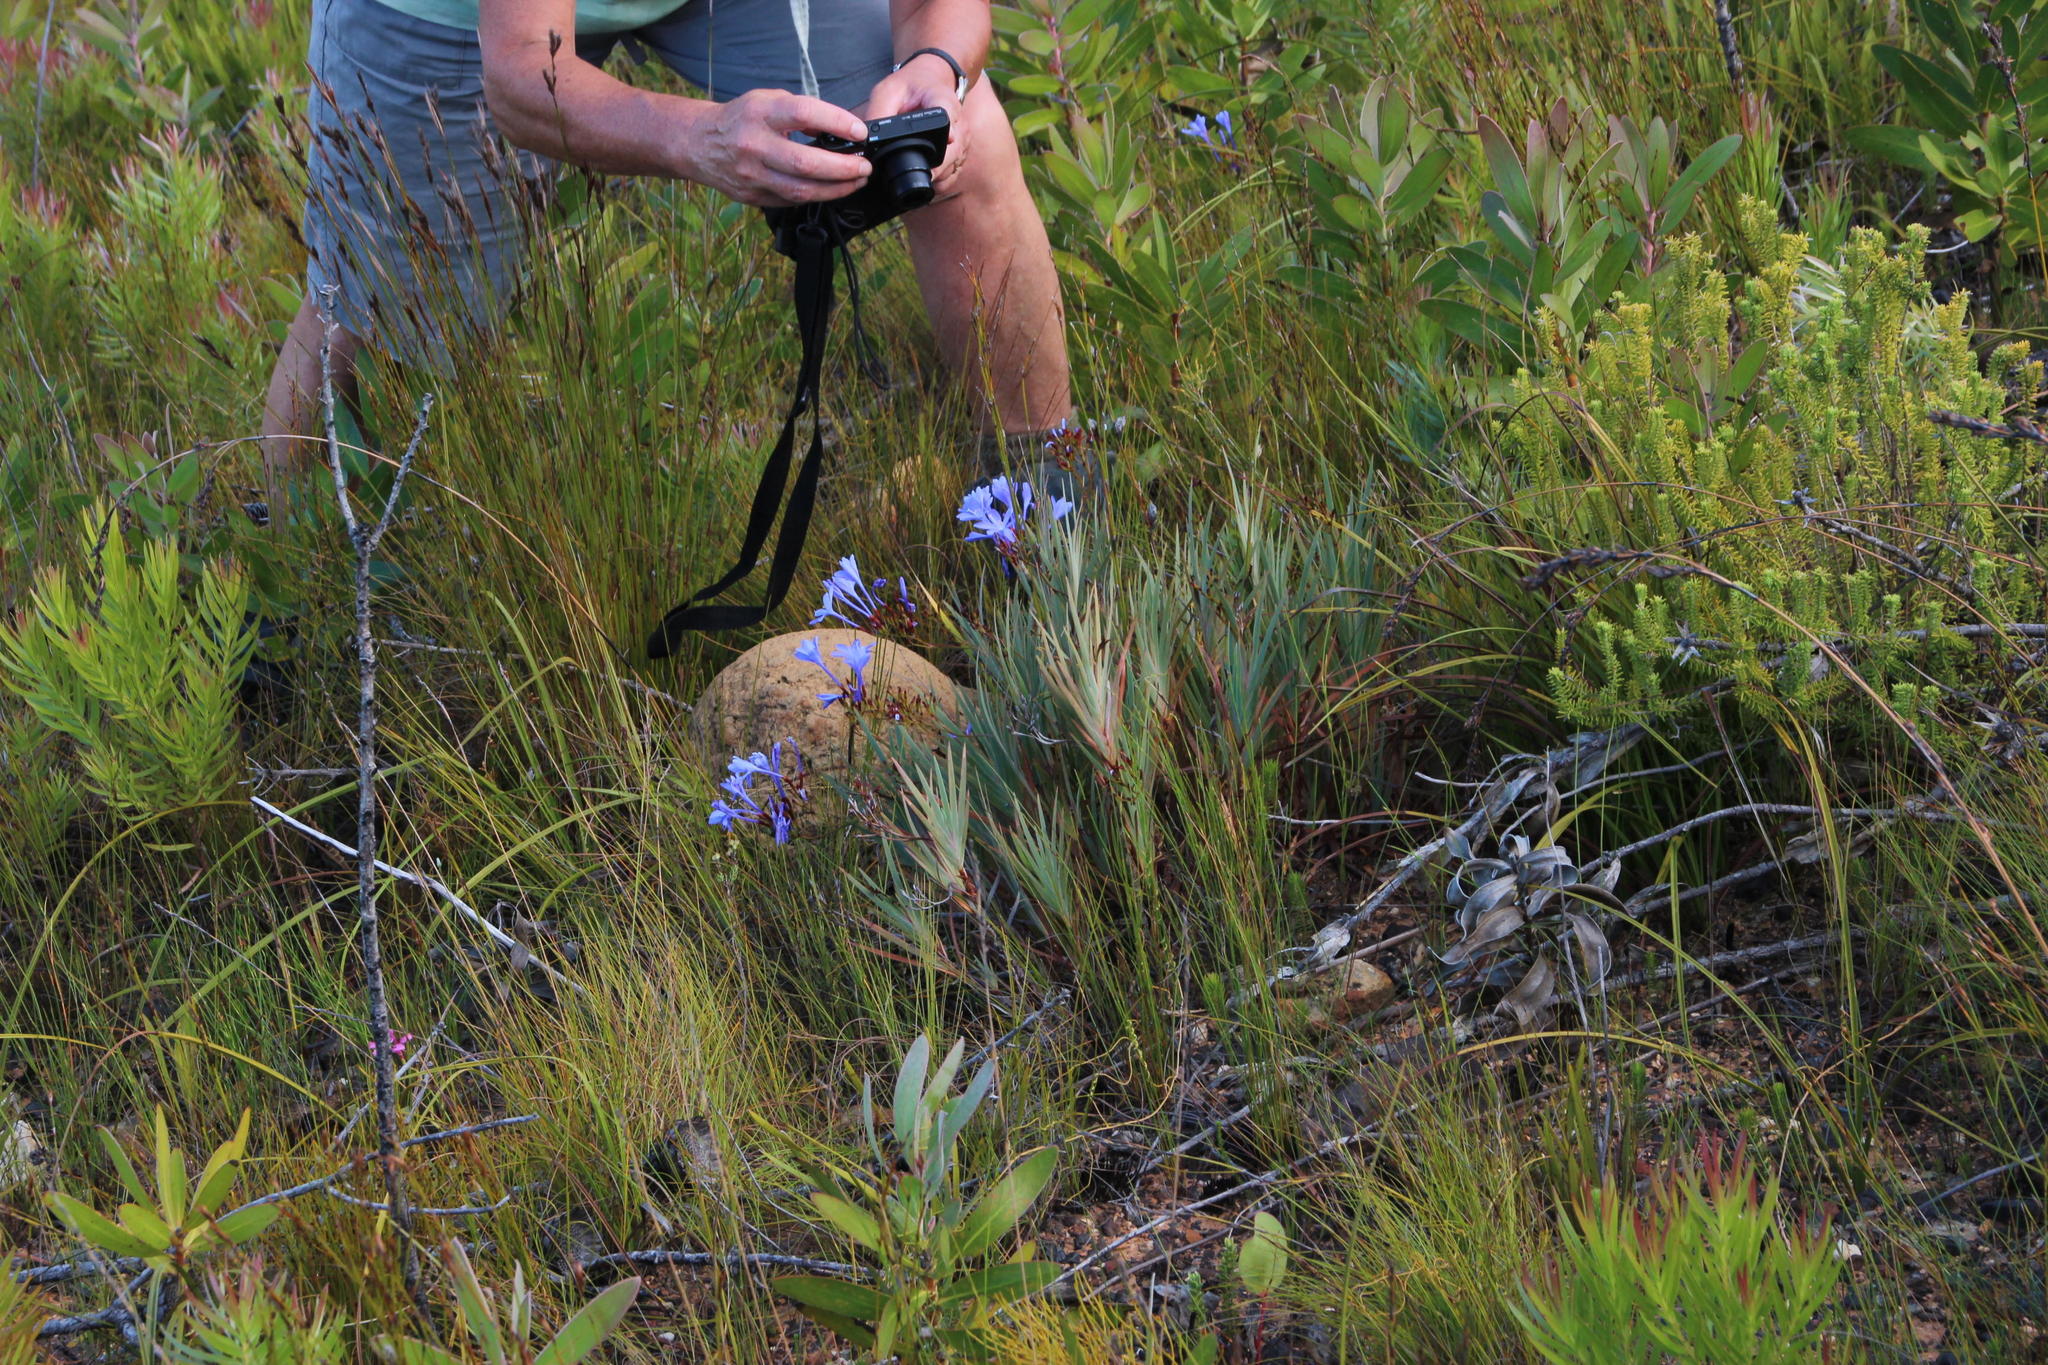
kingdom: Plantae
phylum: Tracheophyta
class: Liliopsida
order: Asparagales
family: Iridaceae
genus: Nivenia
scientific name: Nivenia stokoei
